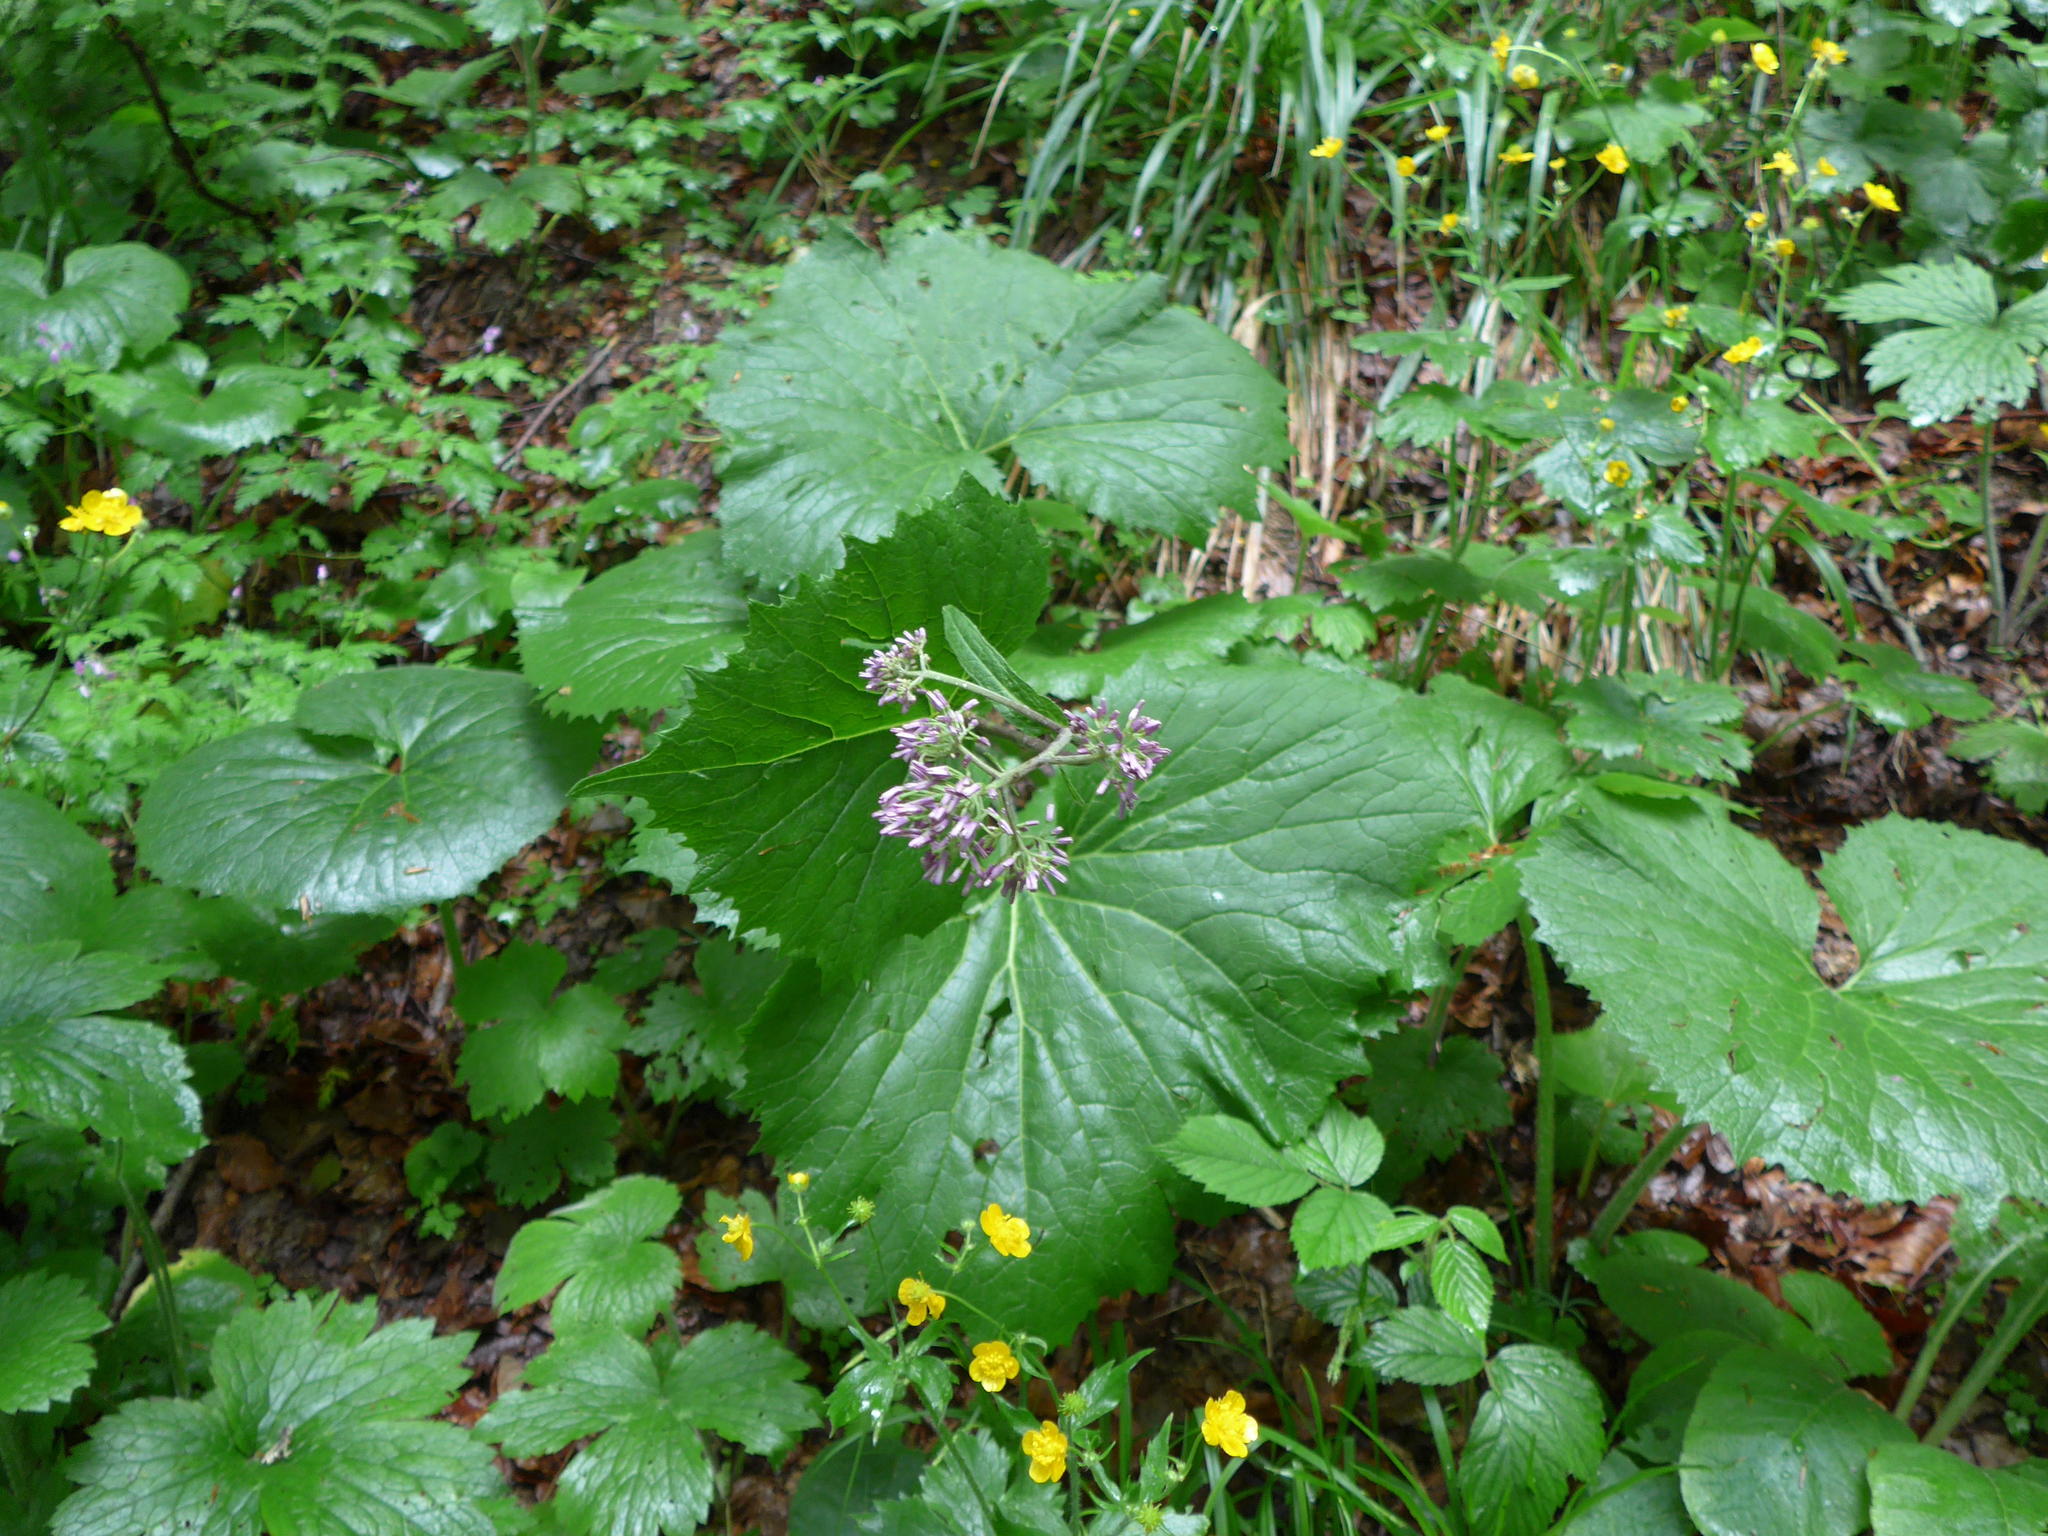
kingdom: Plantae
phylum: Tracheophyta
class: Magnoliopsida
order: Asterales
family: Asteraceae
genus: Adenostyles
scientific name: Adenostyles alliariae
